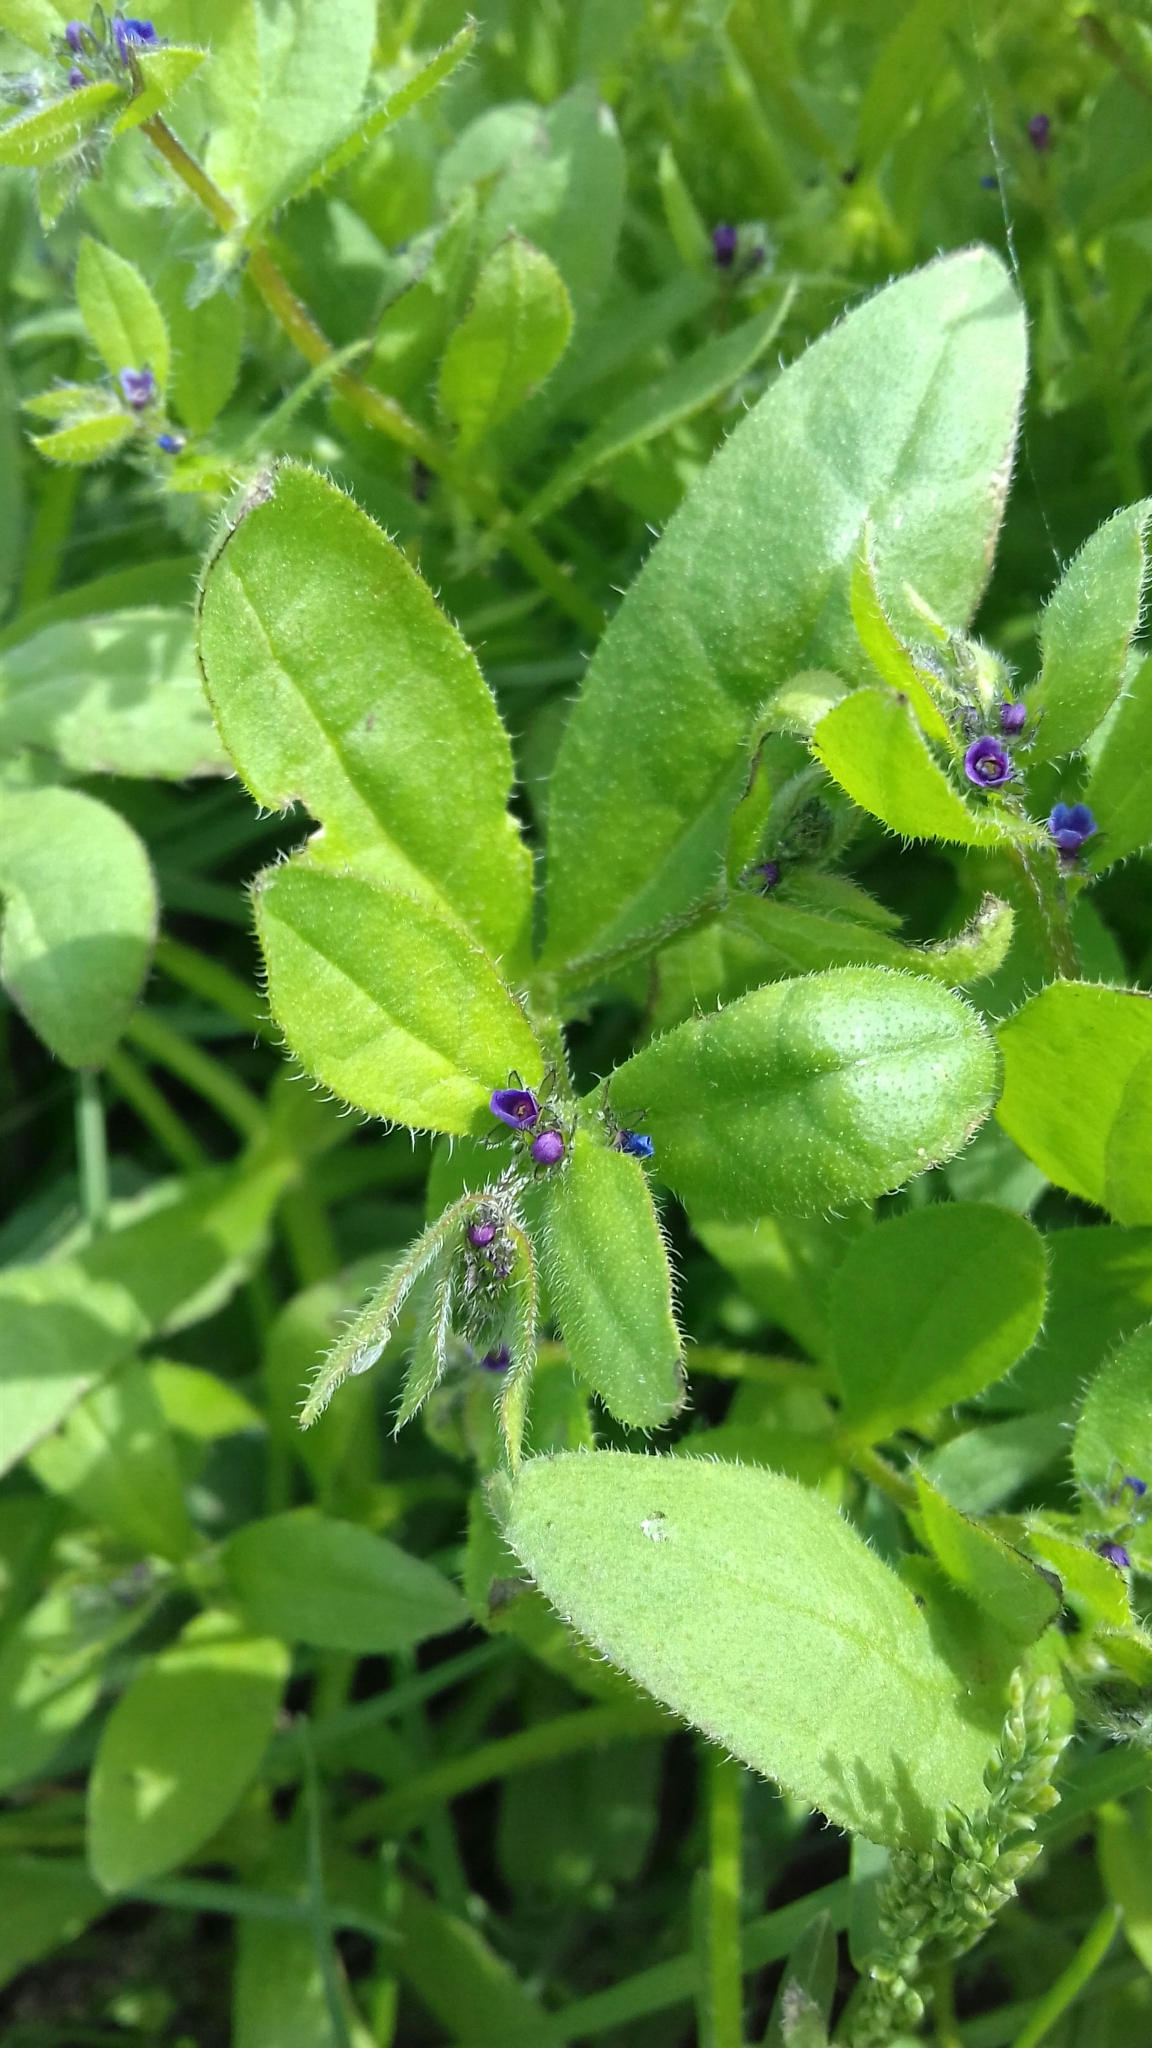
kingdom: Plantae
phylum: Tracheophyta
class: Magnoliopsida
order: Boraginales
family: Boraginaceae
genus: Asperugo
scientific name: Asperugo procumbens
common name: Madwort
